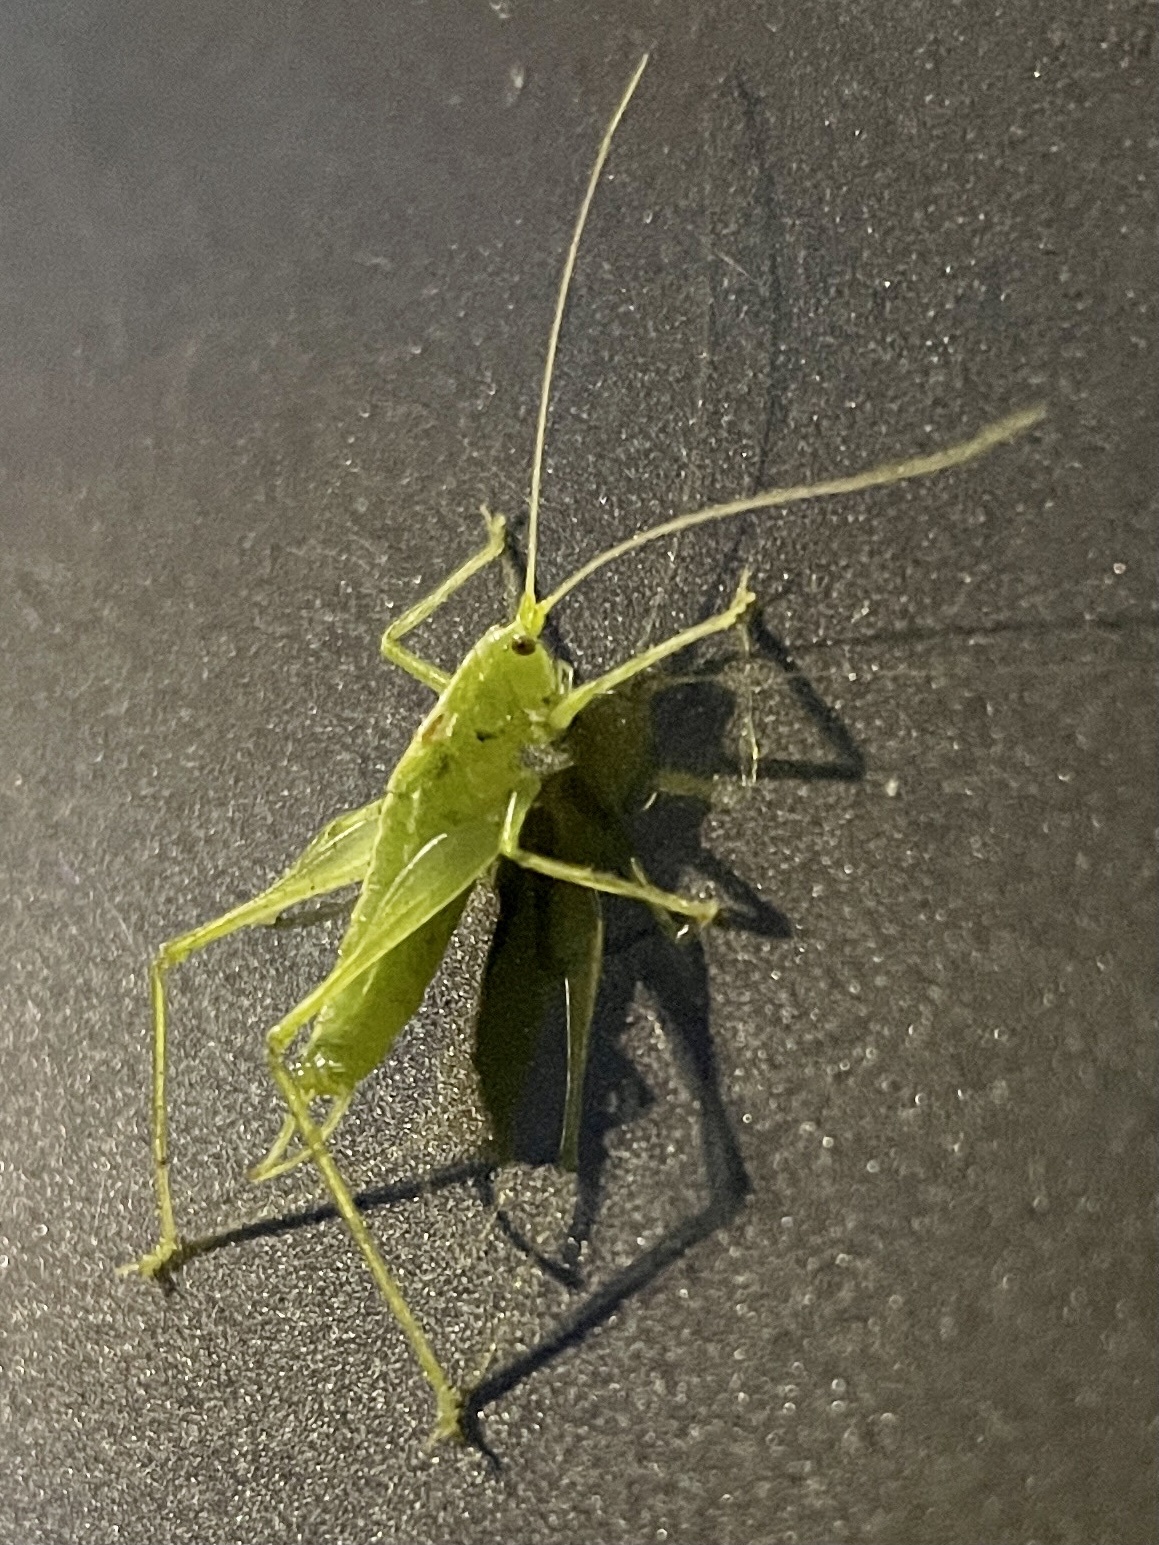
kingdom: Animalia
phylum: Arthropoda
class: Insecta
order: Orthoptera
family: Tettigoniidae
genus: Meconema
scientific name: Meconema meridionale
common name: Southern oak bush-cricket
